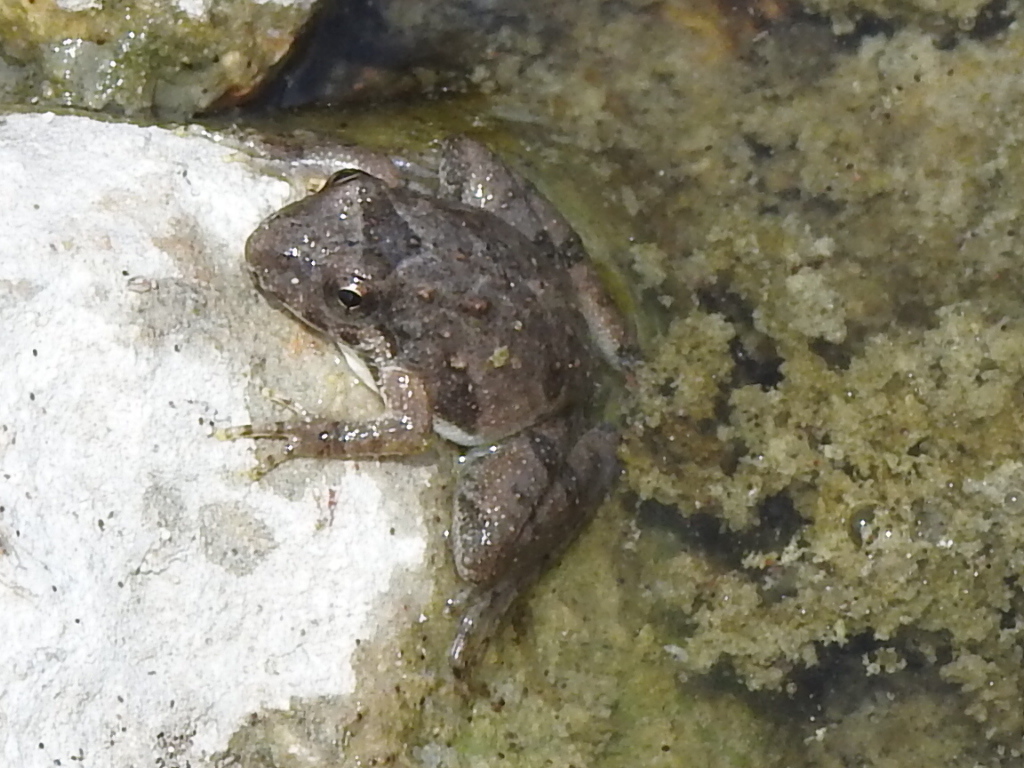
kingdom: Animalia
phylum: Chordata
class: Amphibia
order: Anura
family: Hylidae
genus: Acris
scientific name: Acris blanchardi
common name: Blanchard's cricket frog
